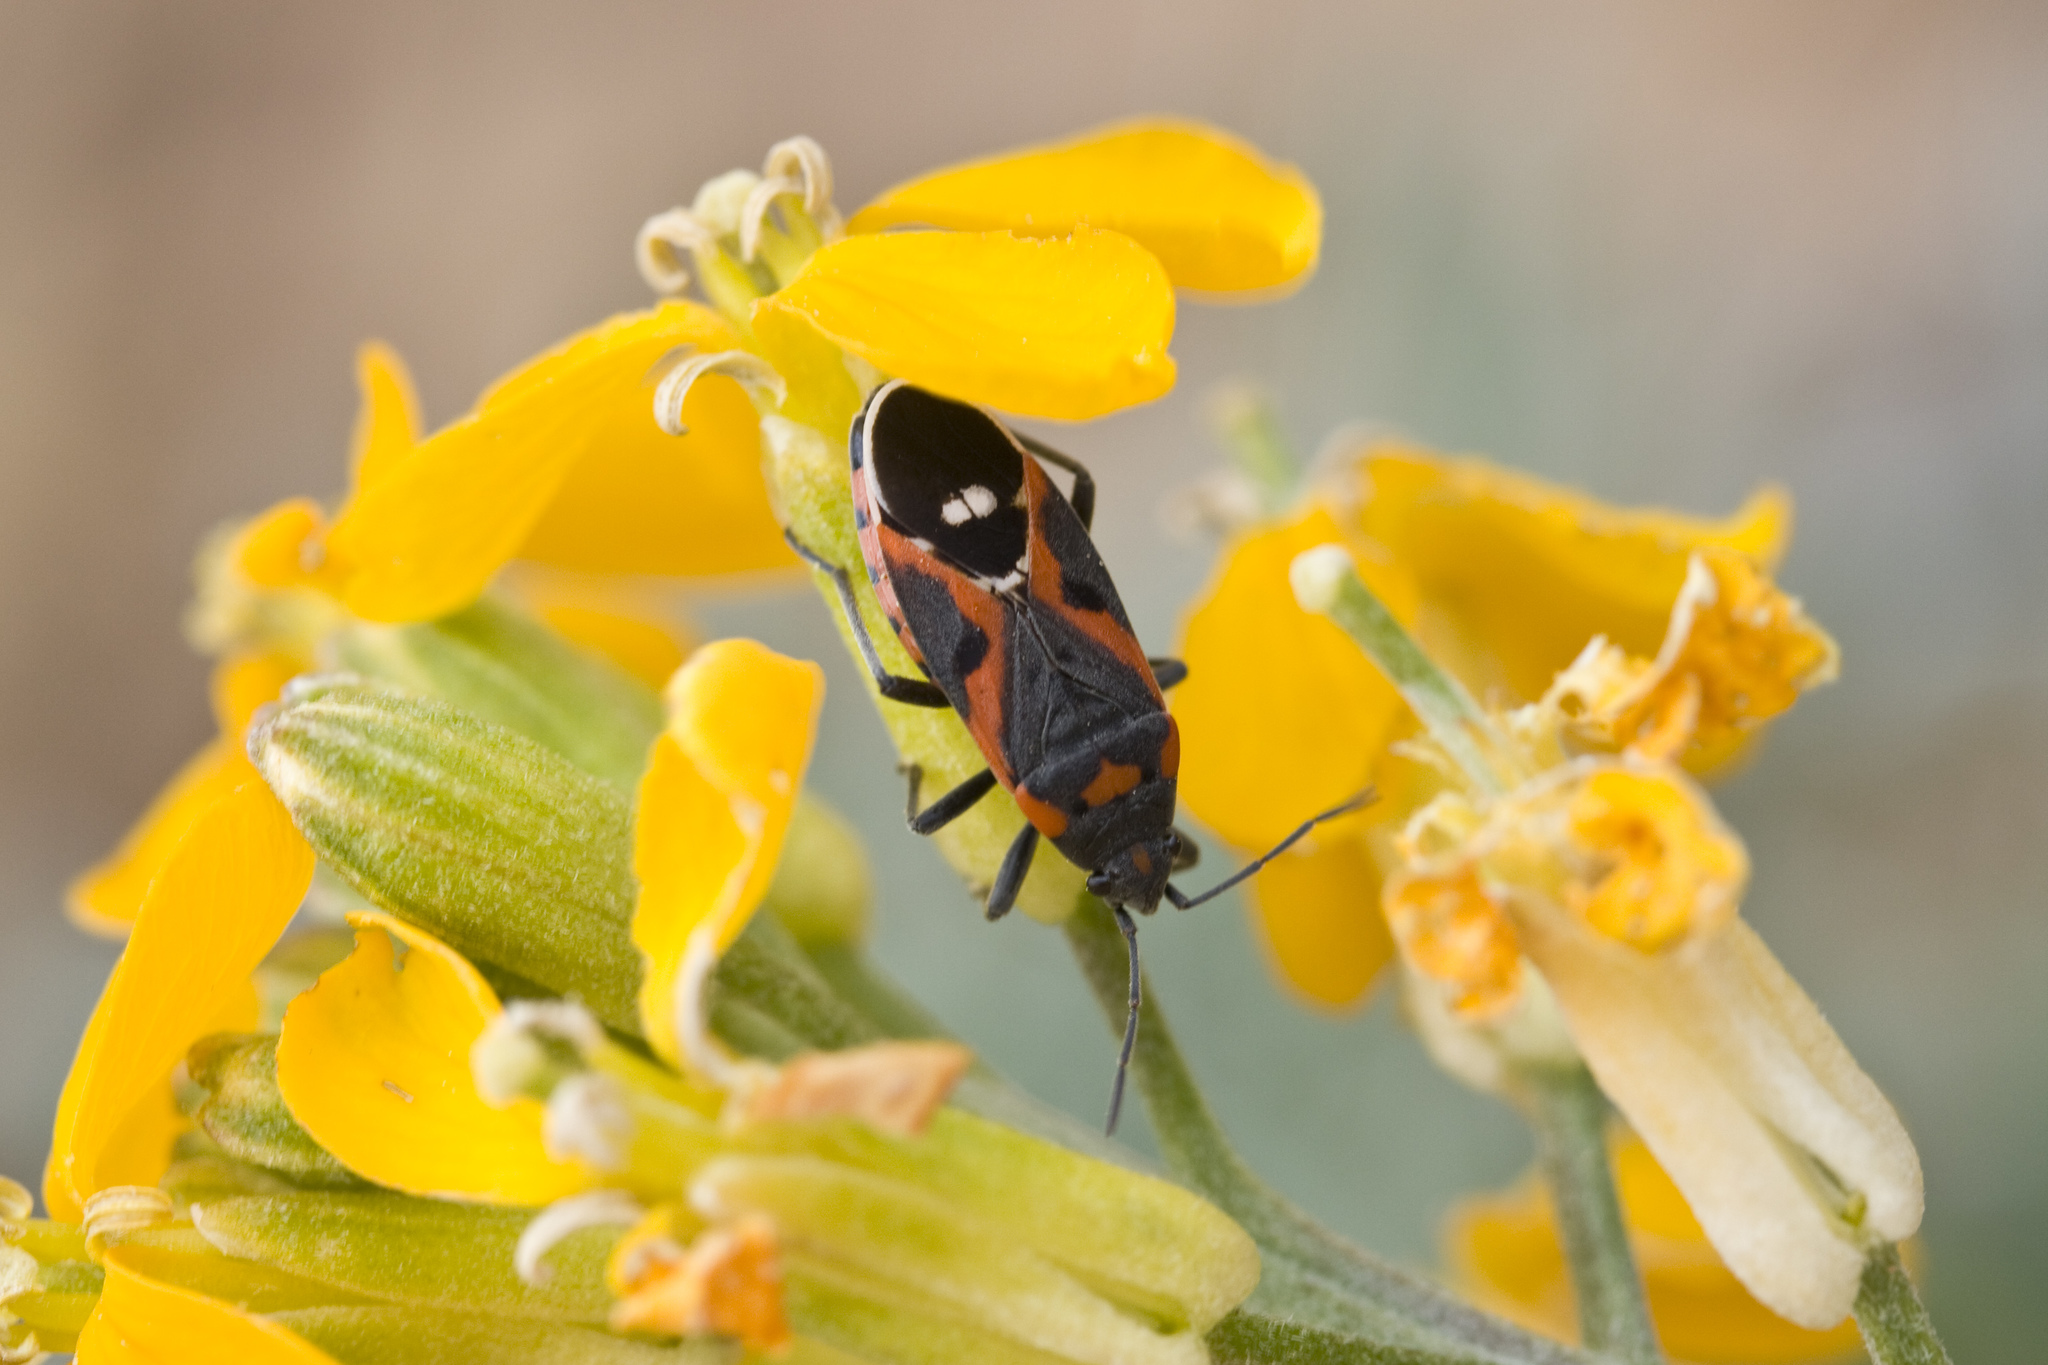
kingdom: Animalia
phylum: Arthropoda
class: Insecta
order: Hemiptera
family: Lygaeidae
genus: Lygaeus
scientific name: Lygaeus kalmii
